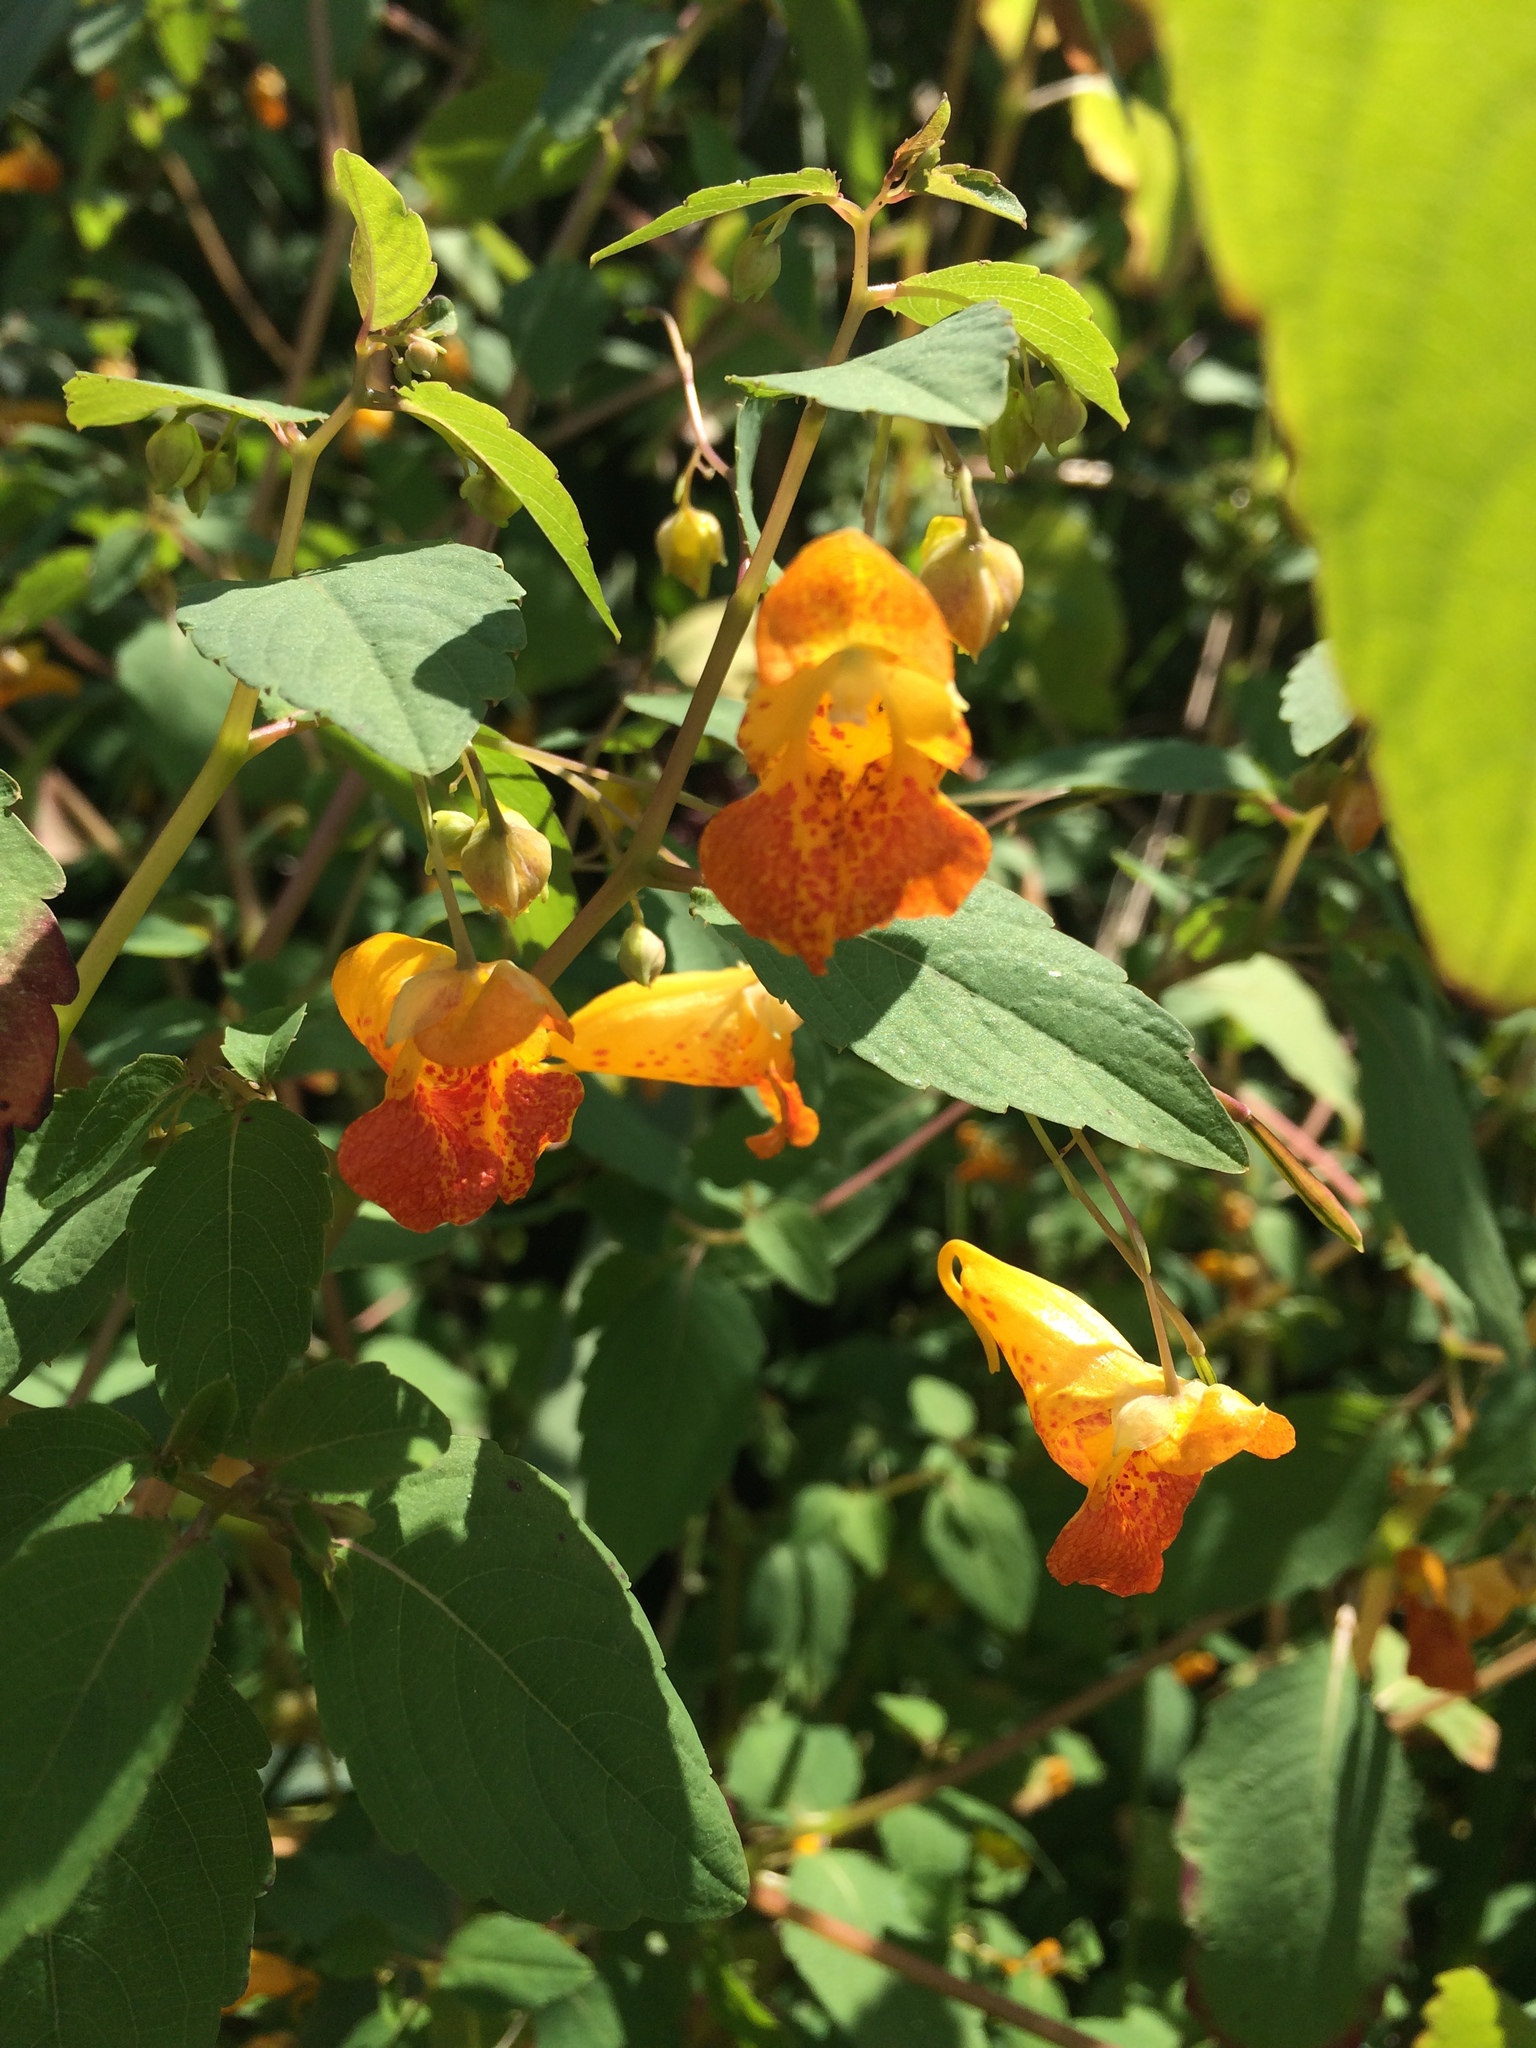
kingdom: Plantae
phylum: Tracheophyta
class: Magnoliopsida
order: Ericales
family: Balsaminaceae
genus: Impatiens
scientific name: Impatiens capensis
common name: Orange balsam
